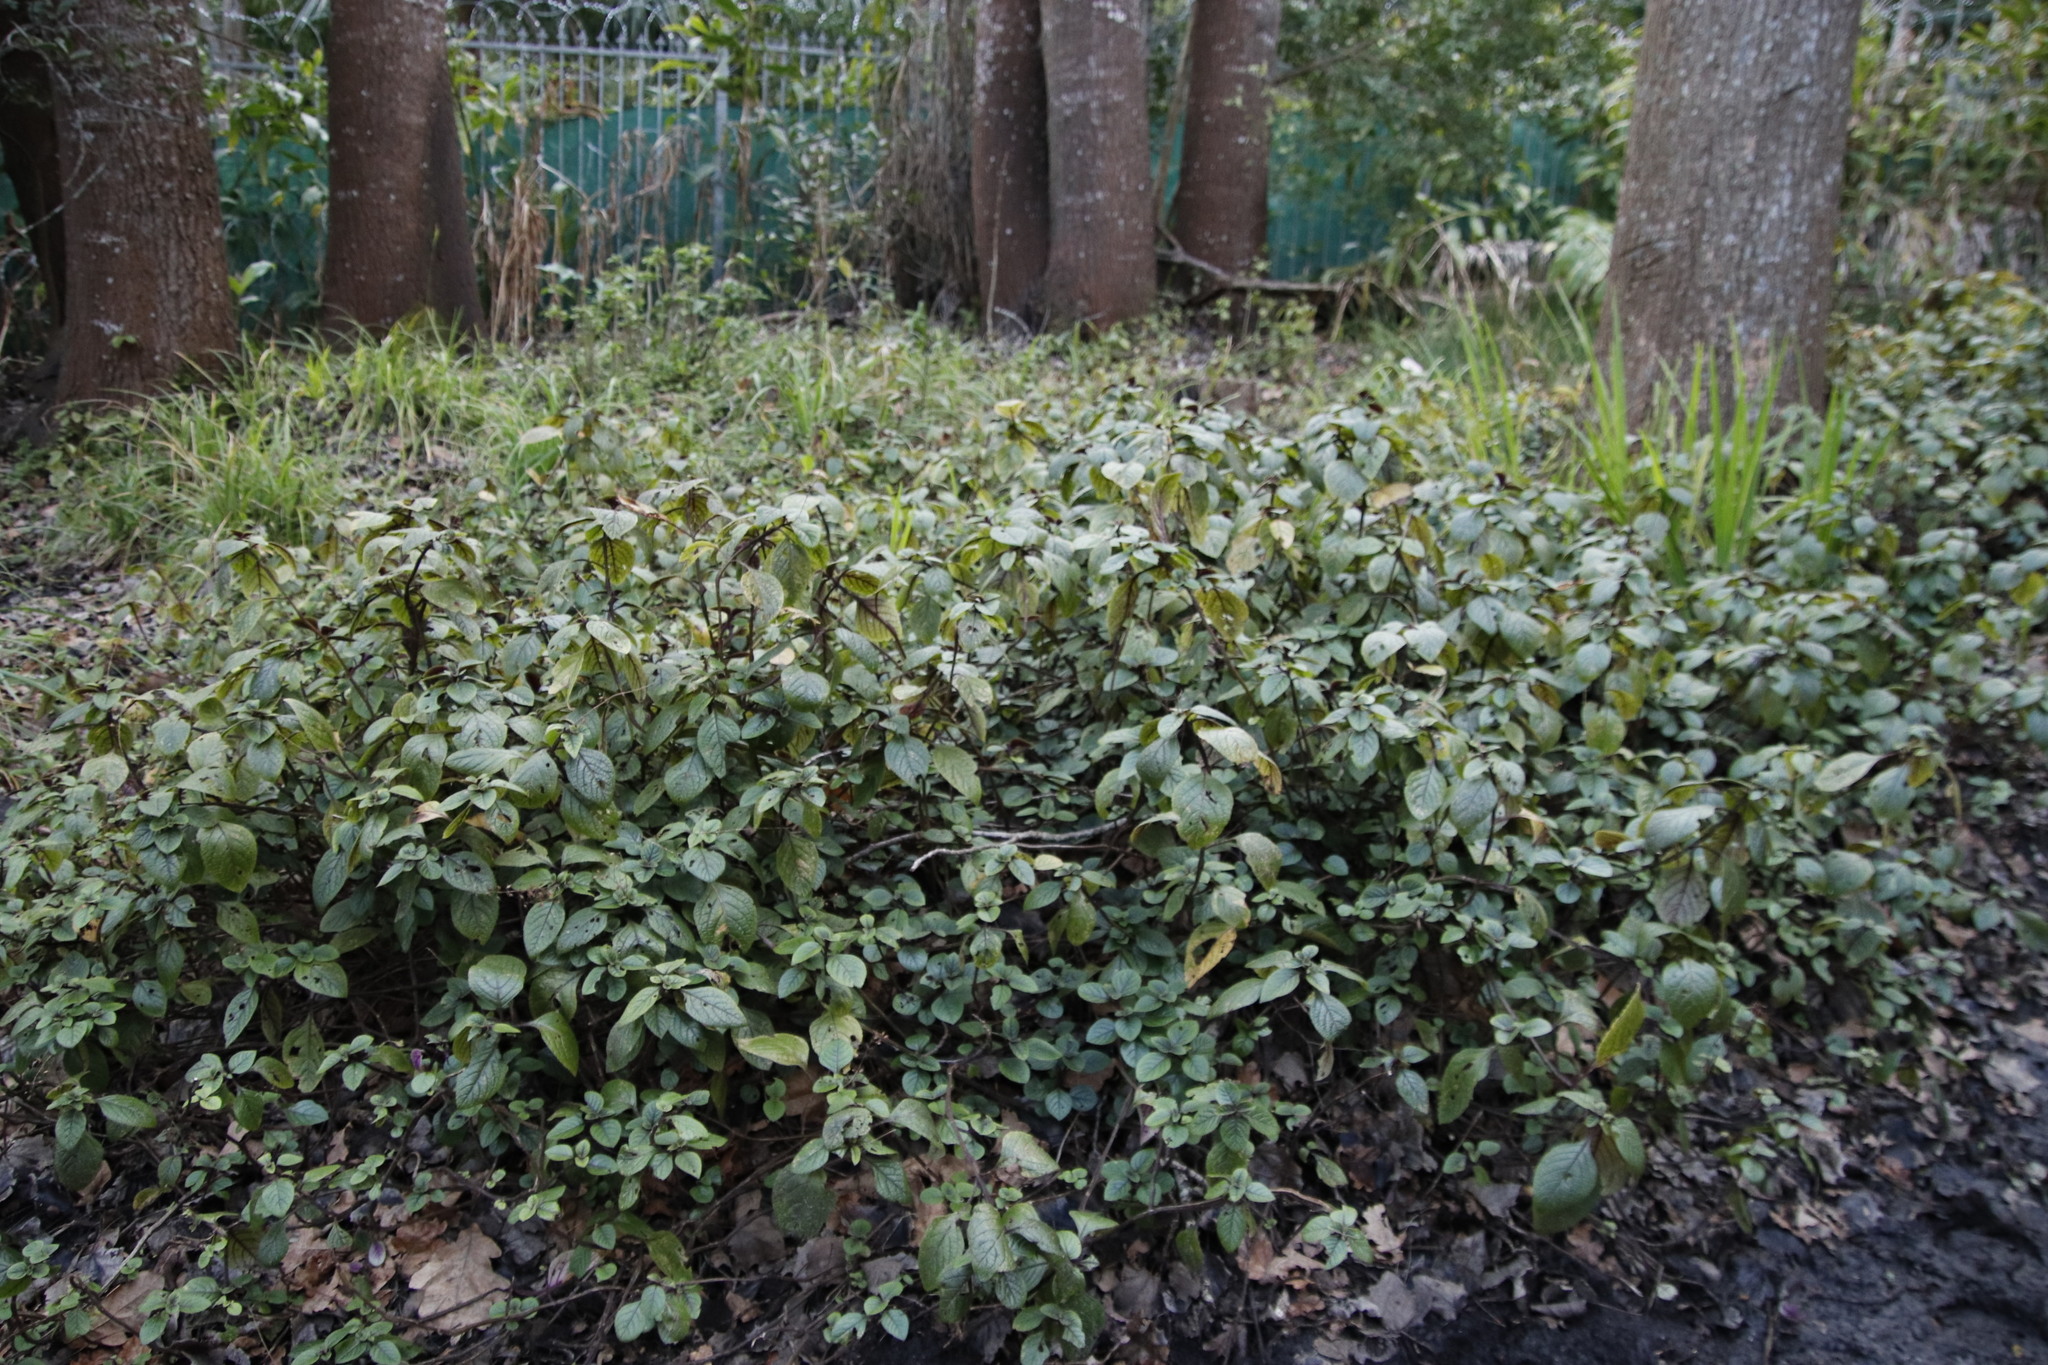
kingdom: Plantae
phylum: Tracheophyta
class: Magnoliopsida
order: Lamiales
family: Lamiaceae
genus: Plectranthus
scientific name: Plectranthus ciliatus
